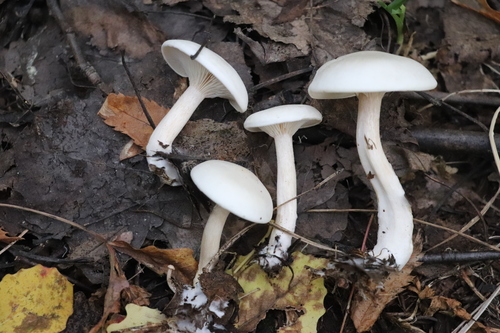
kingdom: Fungi
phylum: Basidiomycota
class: Agaricomycetes
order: Agaricales
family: Tricholomataceae
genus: Clitocybe
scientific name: Clitocybe
